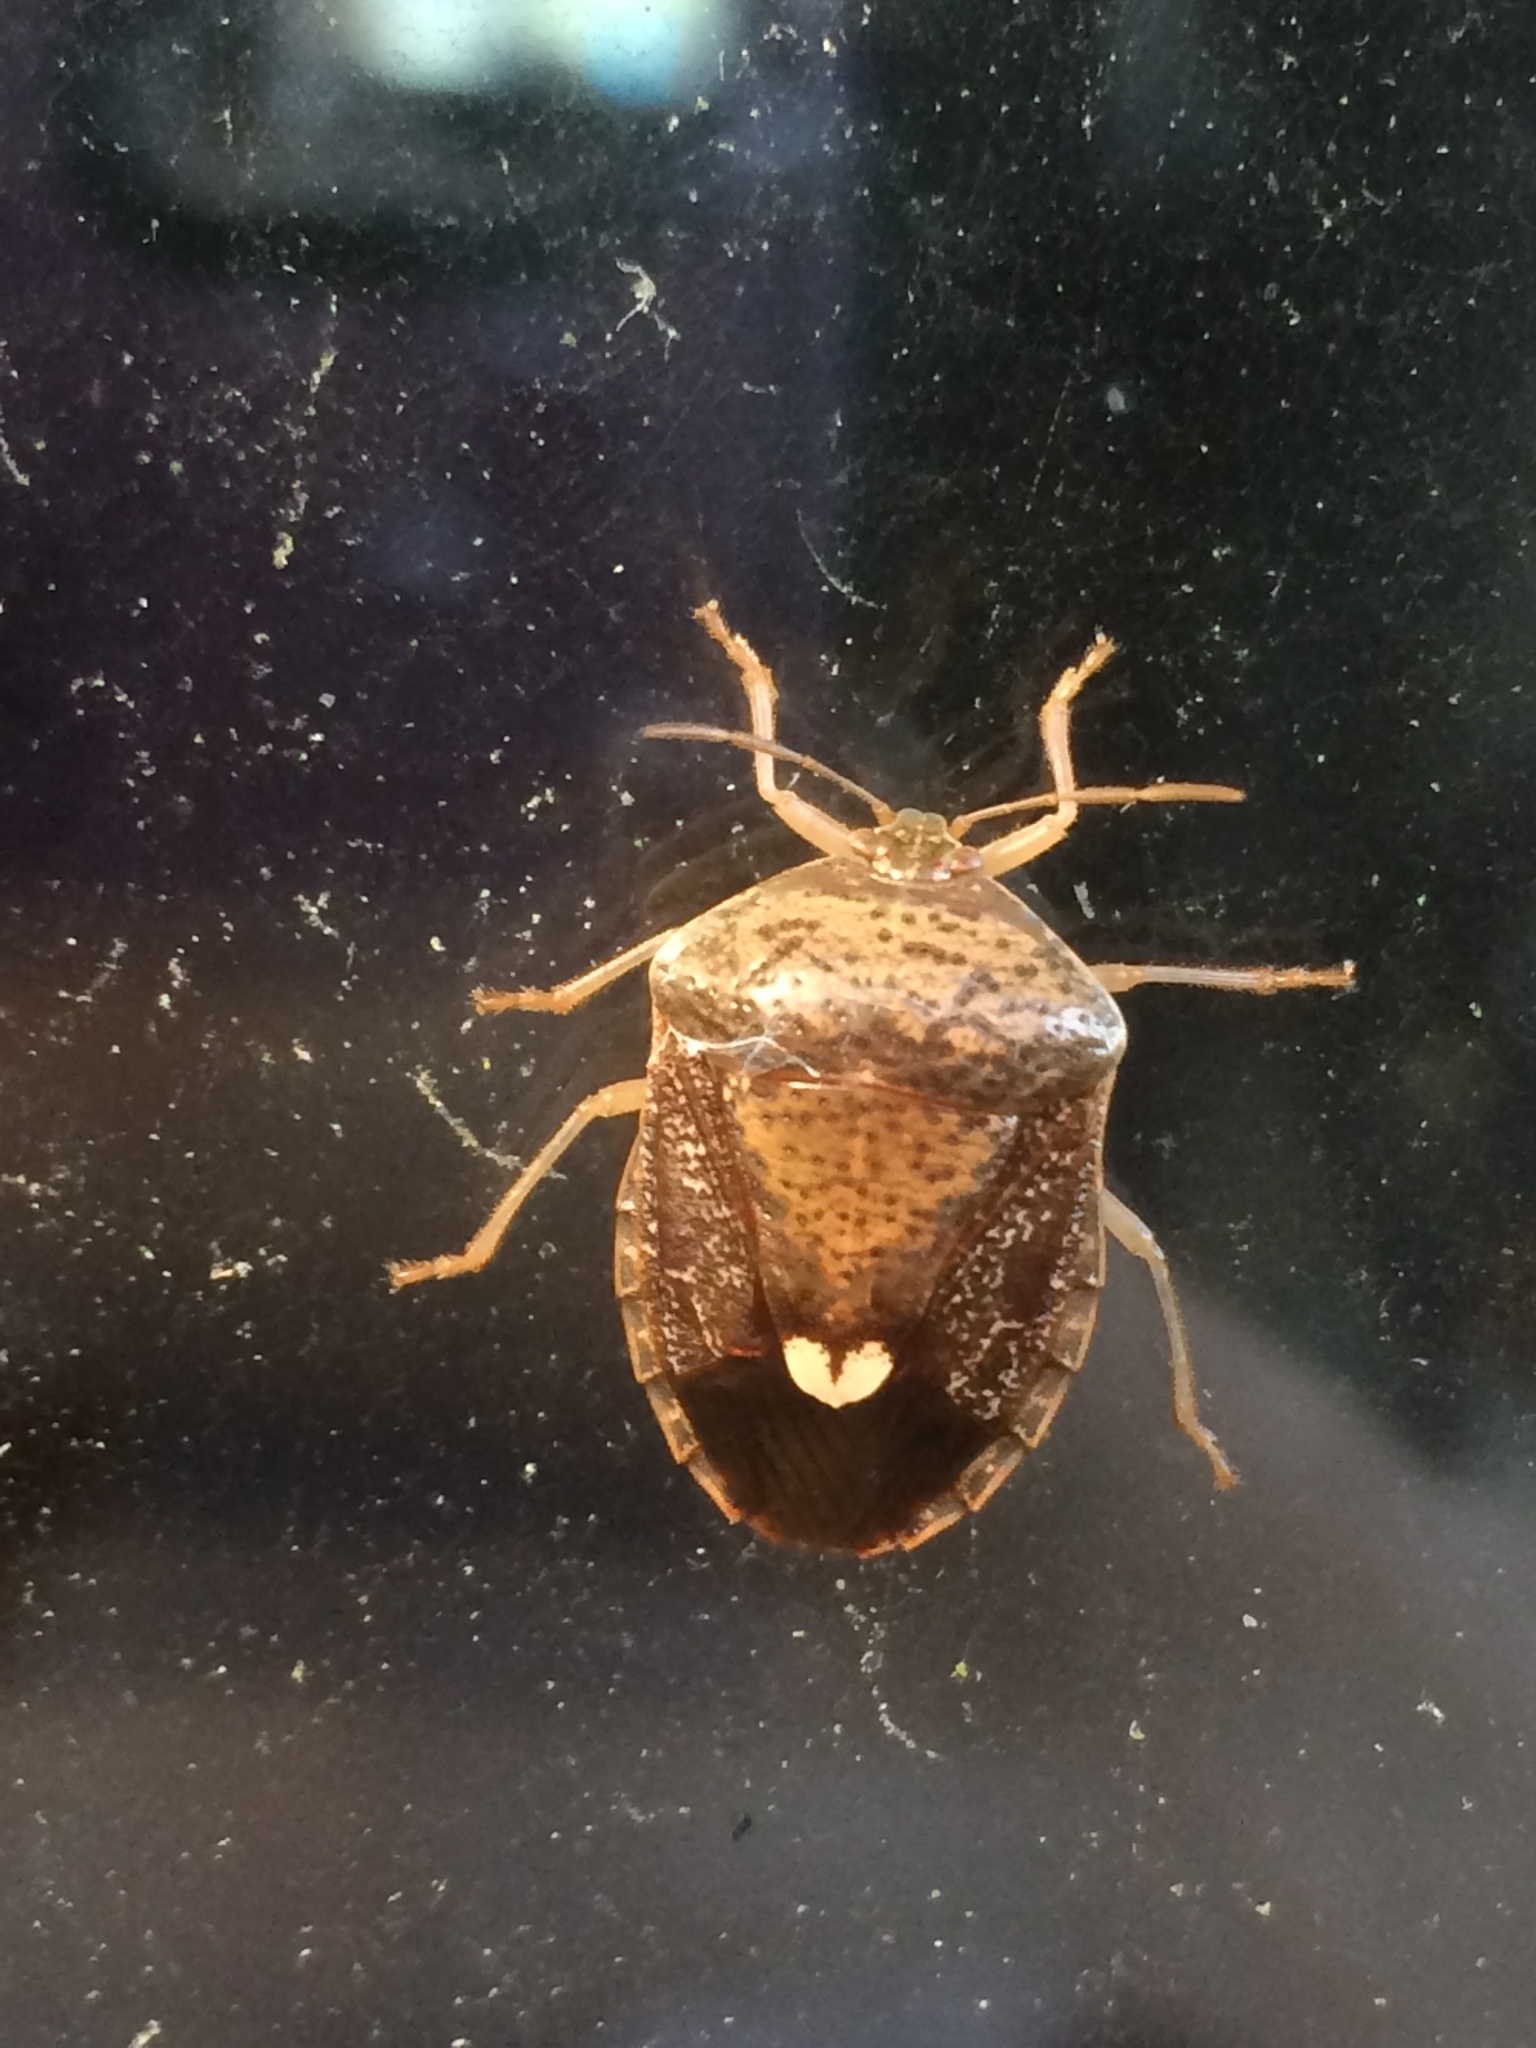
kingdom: Animalia
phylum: Arthropoda
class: Insecta
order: Hemiptera
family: Pentatomidae
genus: Edessa
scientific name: Edessa bifida
